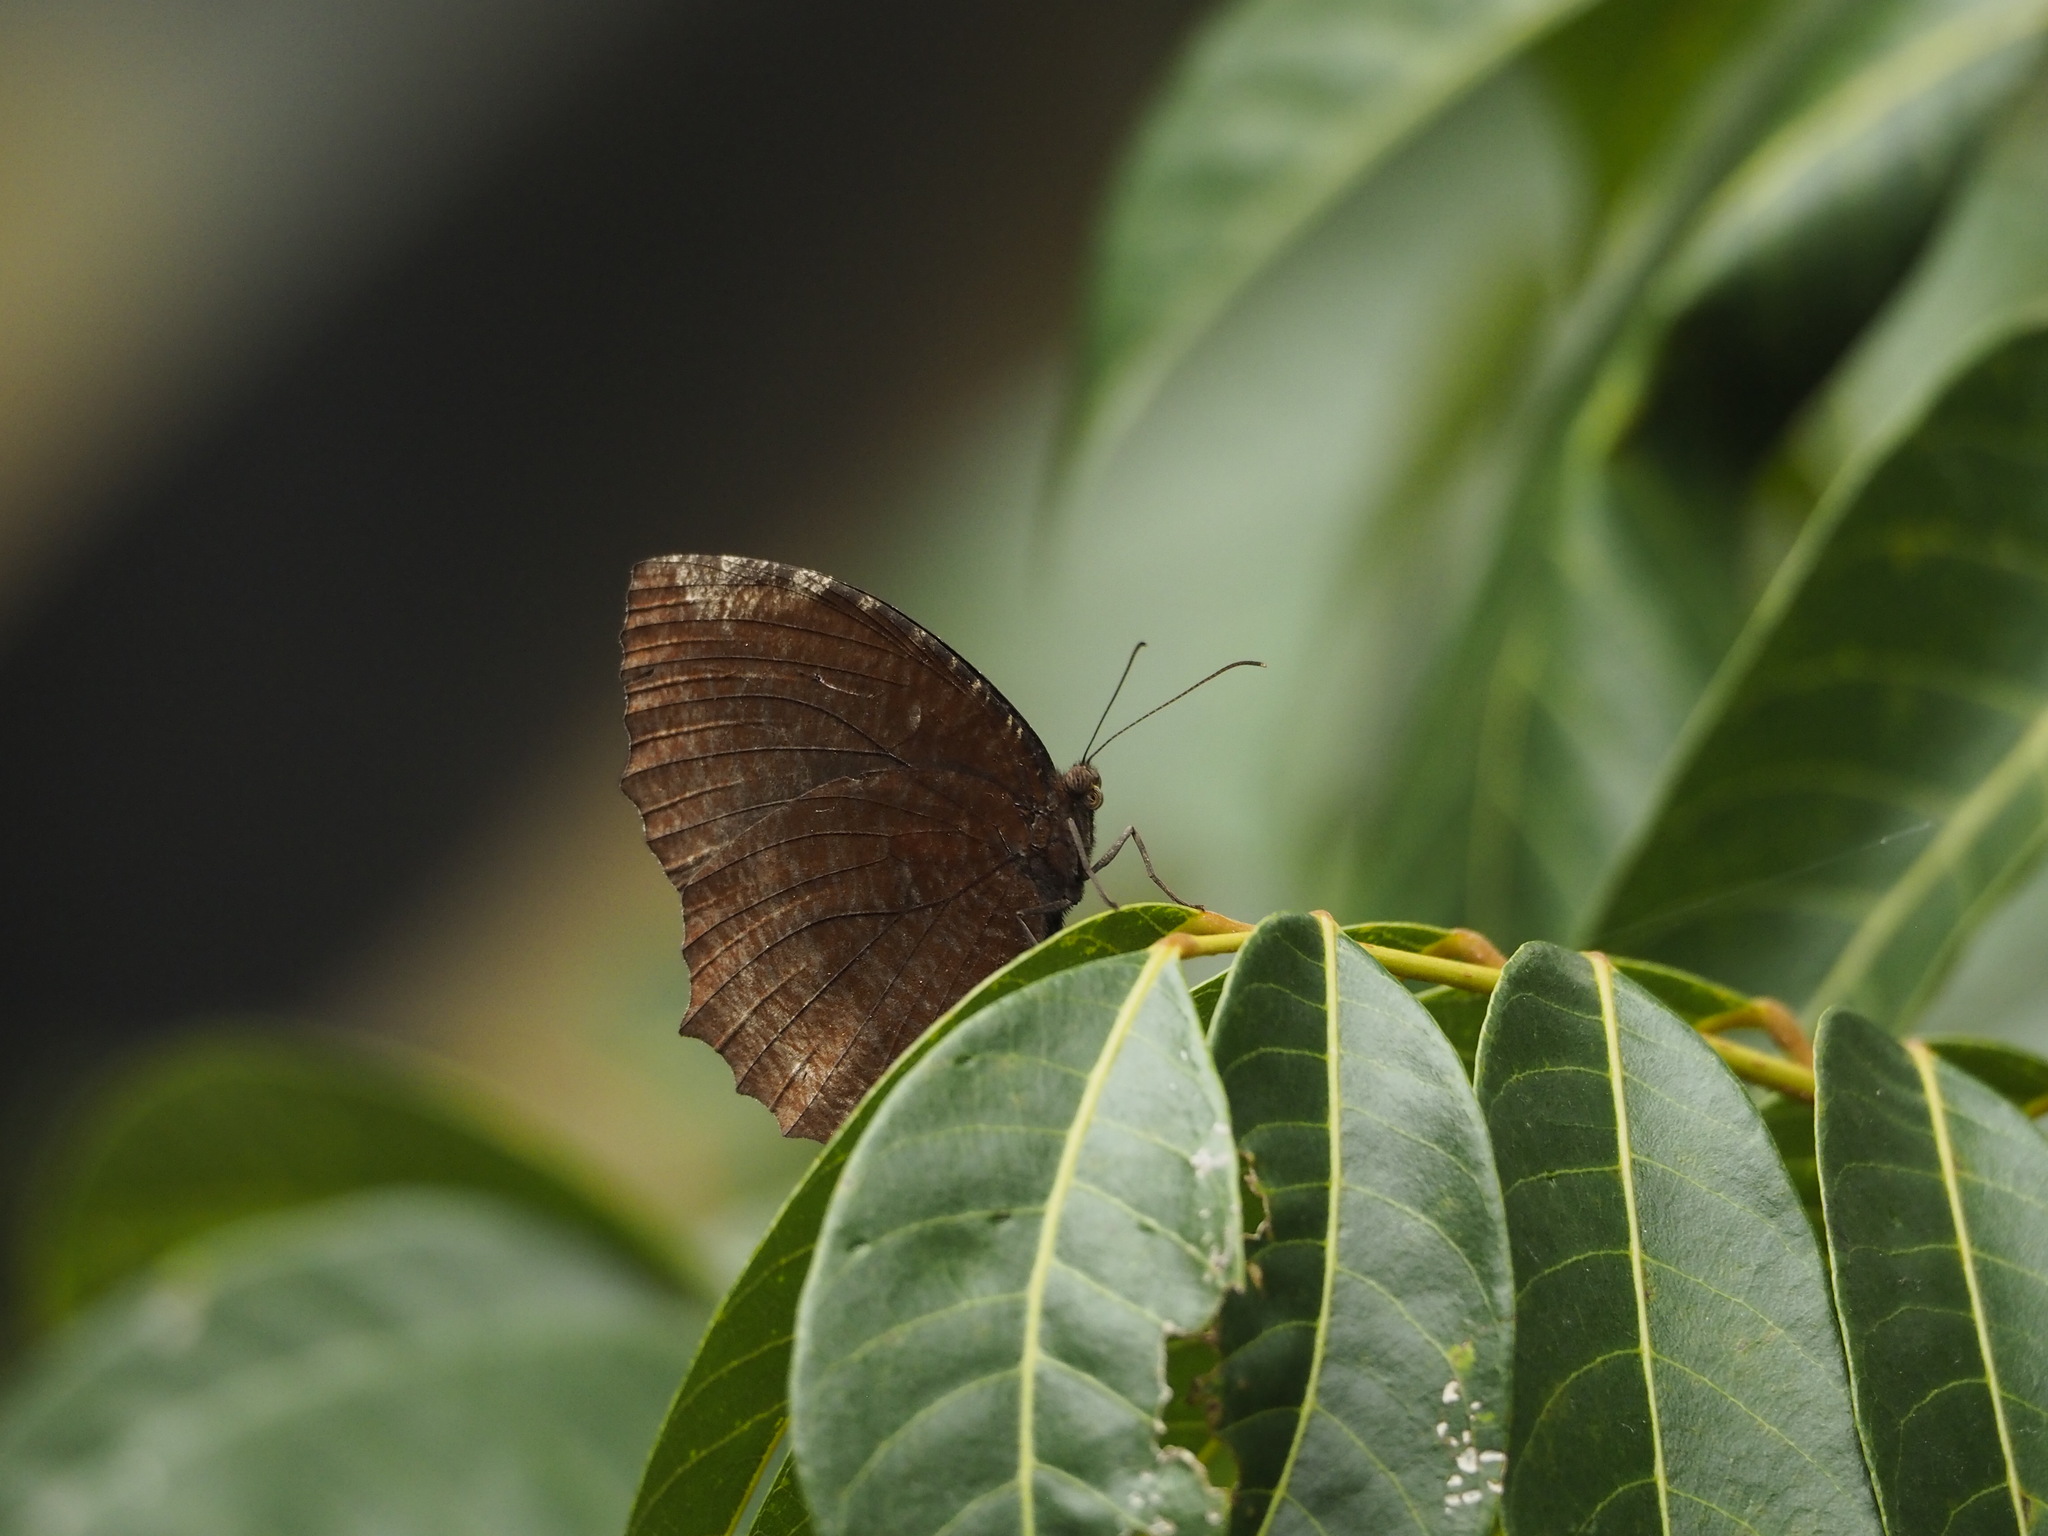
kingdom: Animalia
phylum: Arthropoda
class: Insecta
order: Lepidoptera
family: Nymphalidae
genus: Elymnias
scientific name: Elymnias hypermnestra
